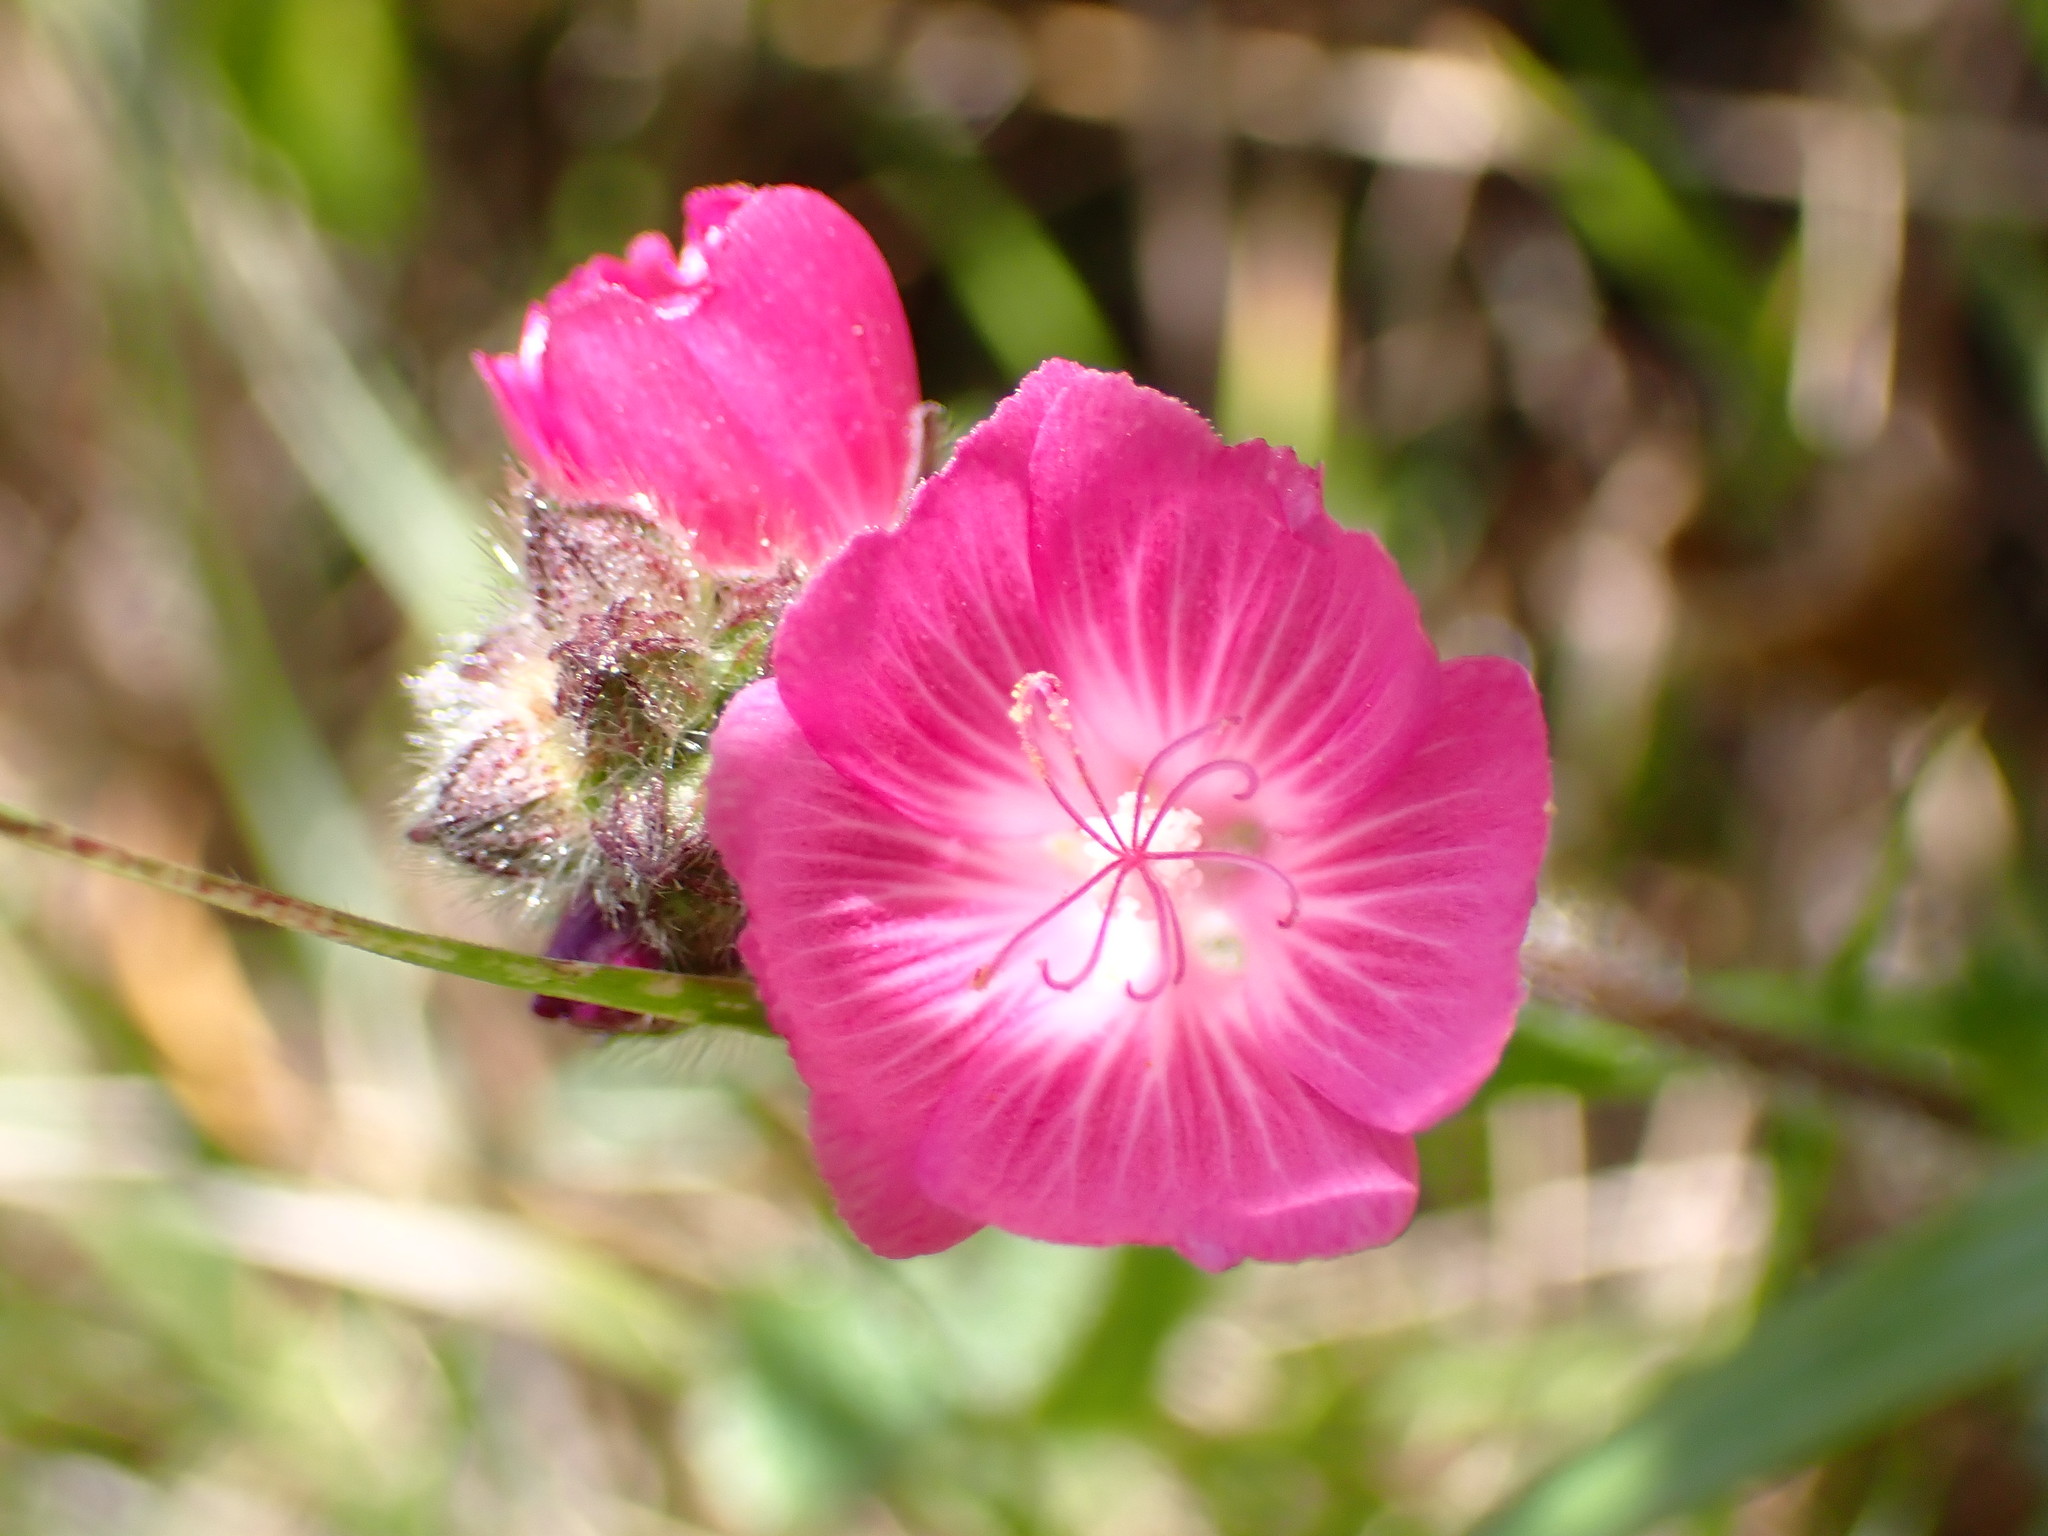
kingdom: Plantae
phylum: Tracheophyta
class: Magnoliopsida
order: Malvales
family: Malvaceae
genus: Sidalcea
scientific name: Sidalcea malviflora
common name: Greek mallow
